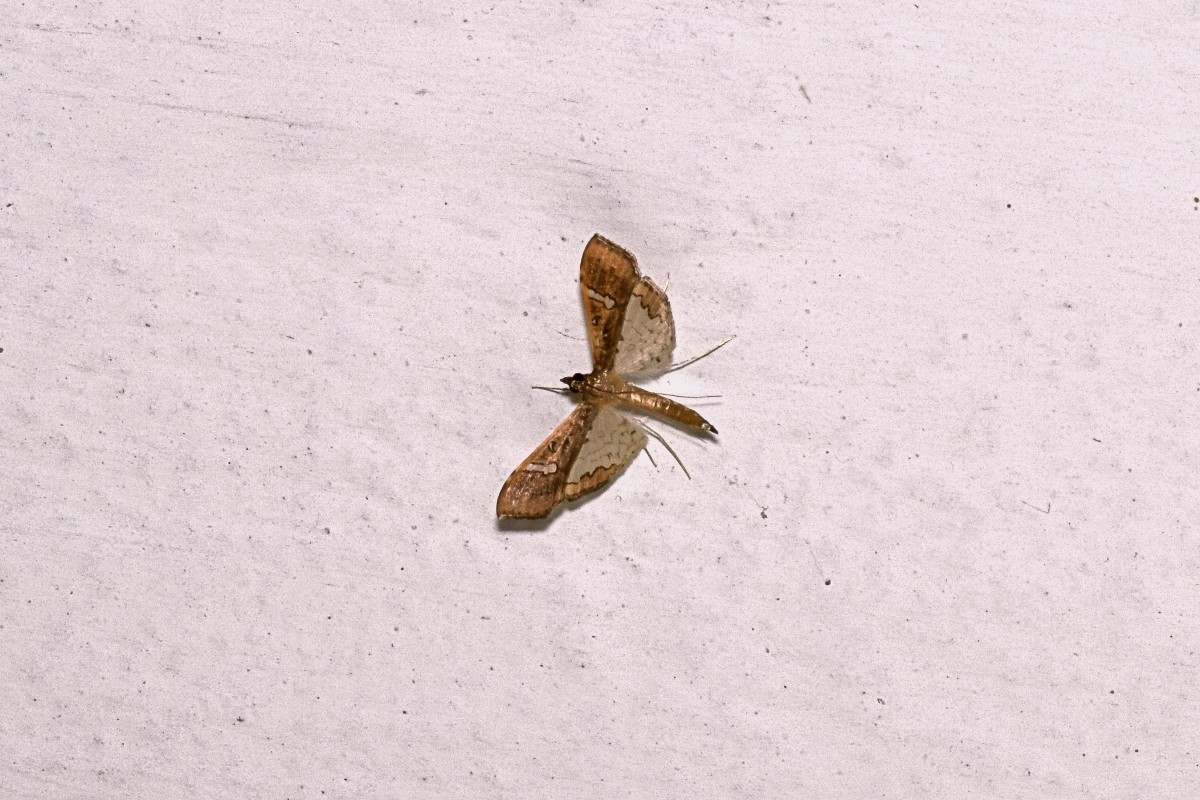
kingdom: Animalia
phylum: Arthropoda
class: Insecta
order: Lepidoptera
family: Crambidae
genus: Maruca
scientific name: Maruca vitrata
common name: Maruca pod borer
